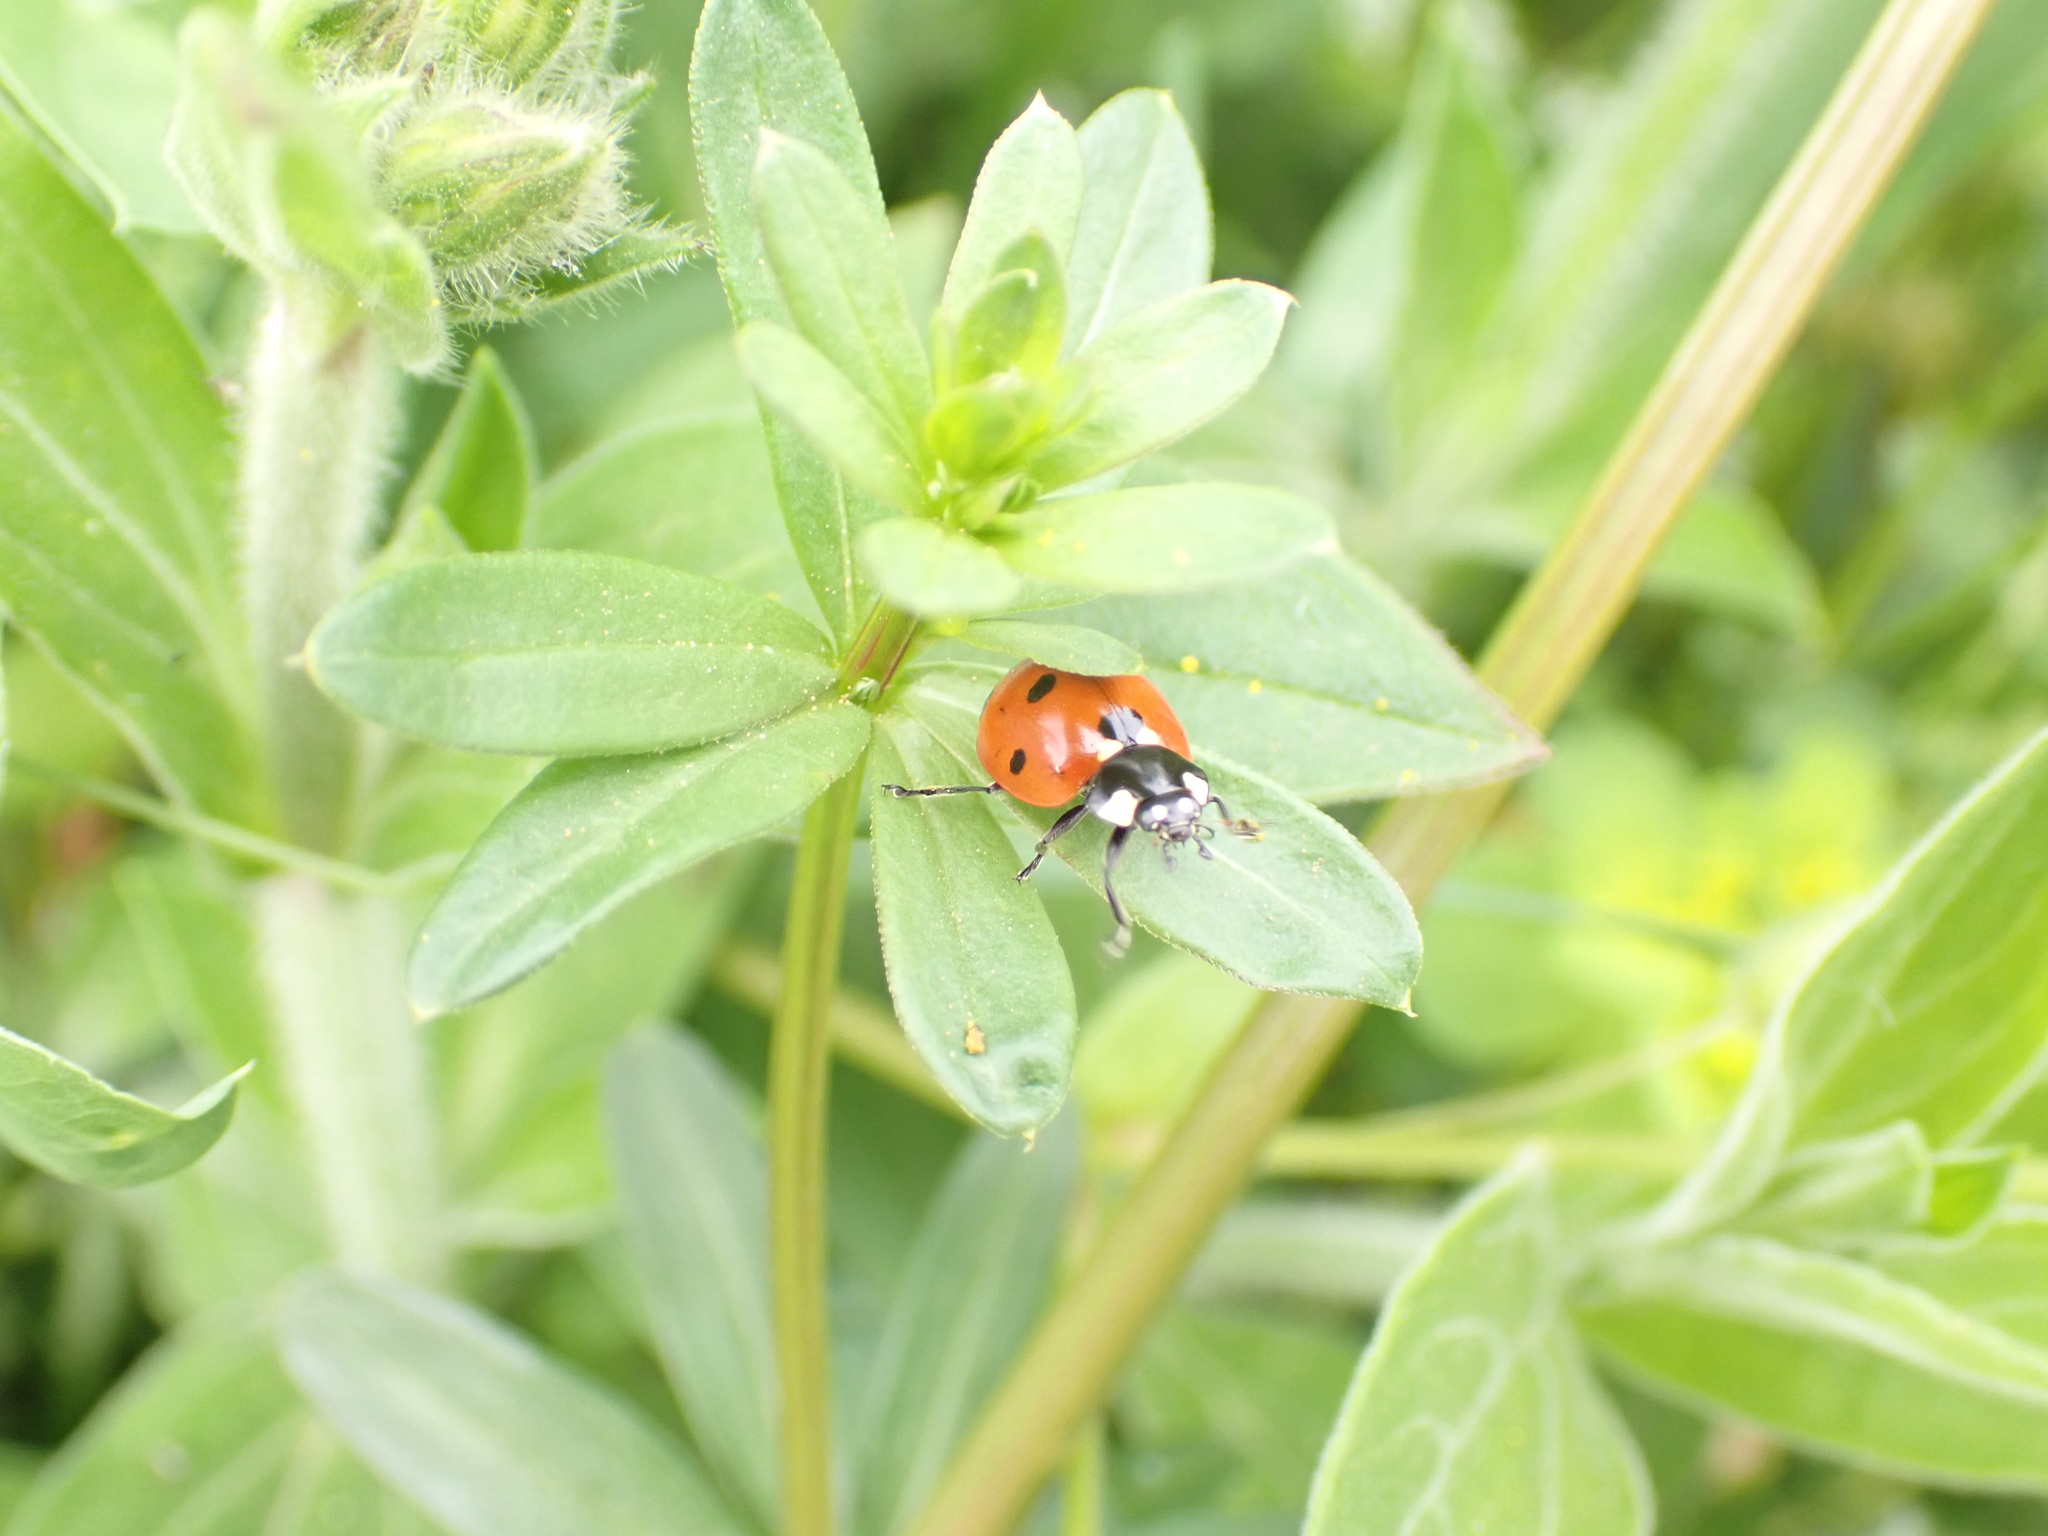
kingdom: Animalia
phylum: Arthropoda
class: Insecta
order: Coleoptera
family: Coccinellidae
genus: Coccinella
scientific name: Coccinella septempunctata
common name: Sevenspotted lady beetle
